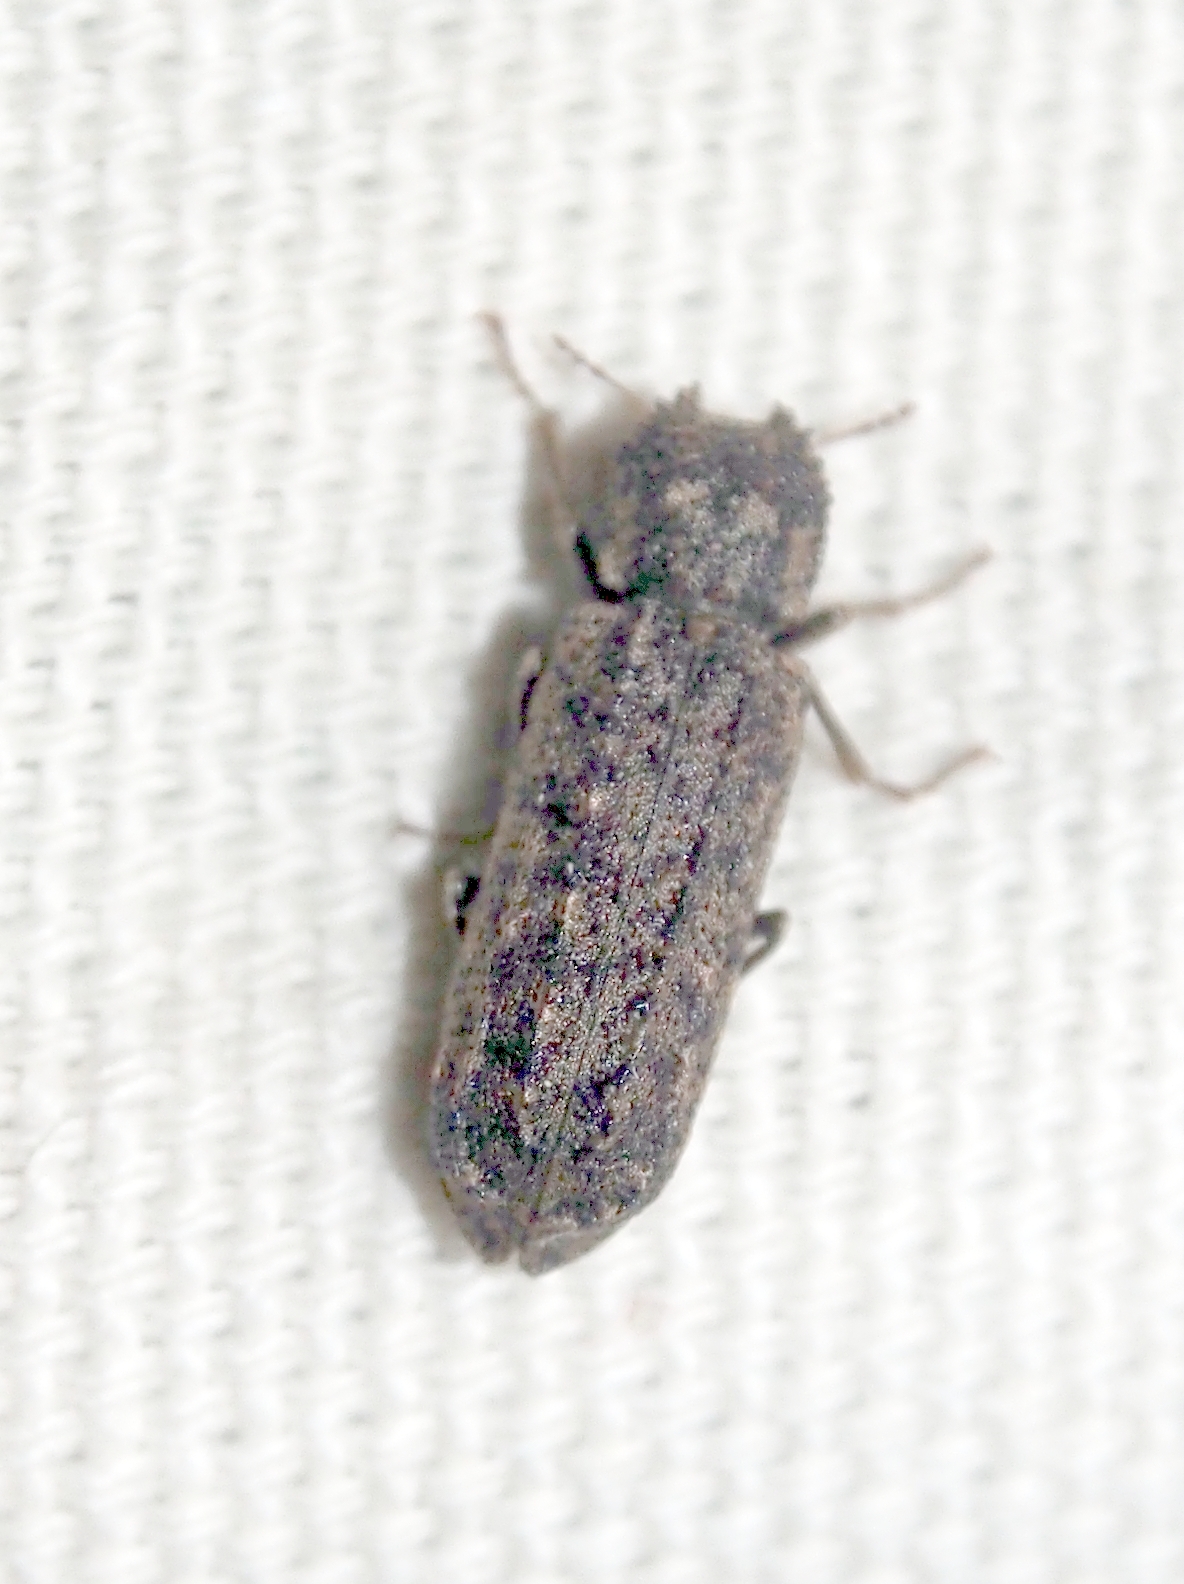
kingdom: Animalia
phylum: Arthropoda
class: Insecta
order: Coleoptera
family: Bostrichidae
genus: Lichenophanes
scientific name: Lichenophanes bicornis
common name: Two-horned powder-post beetle
